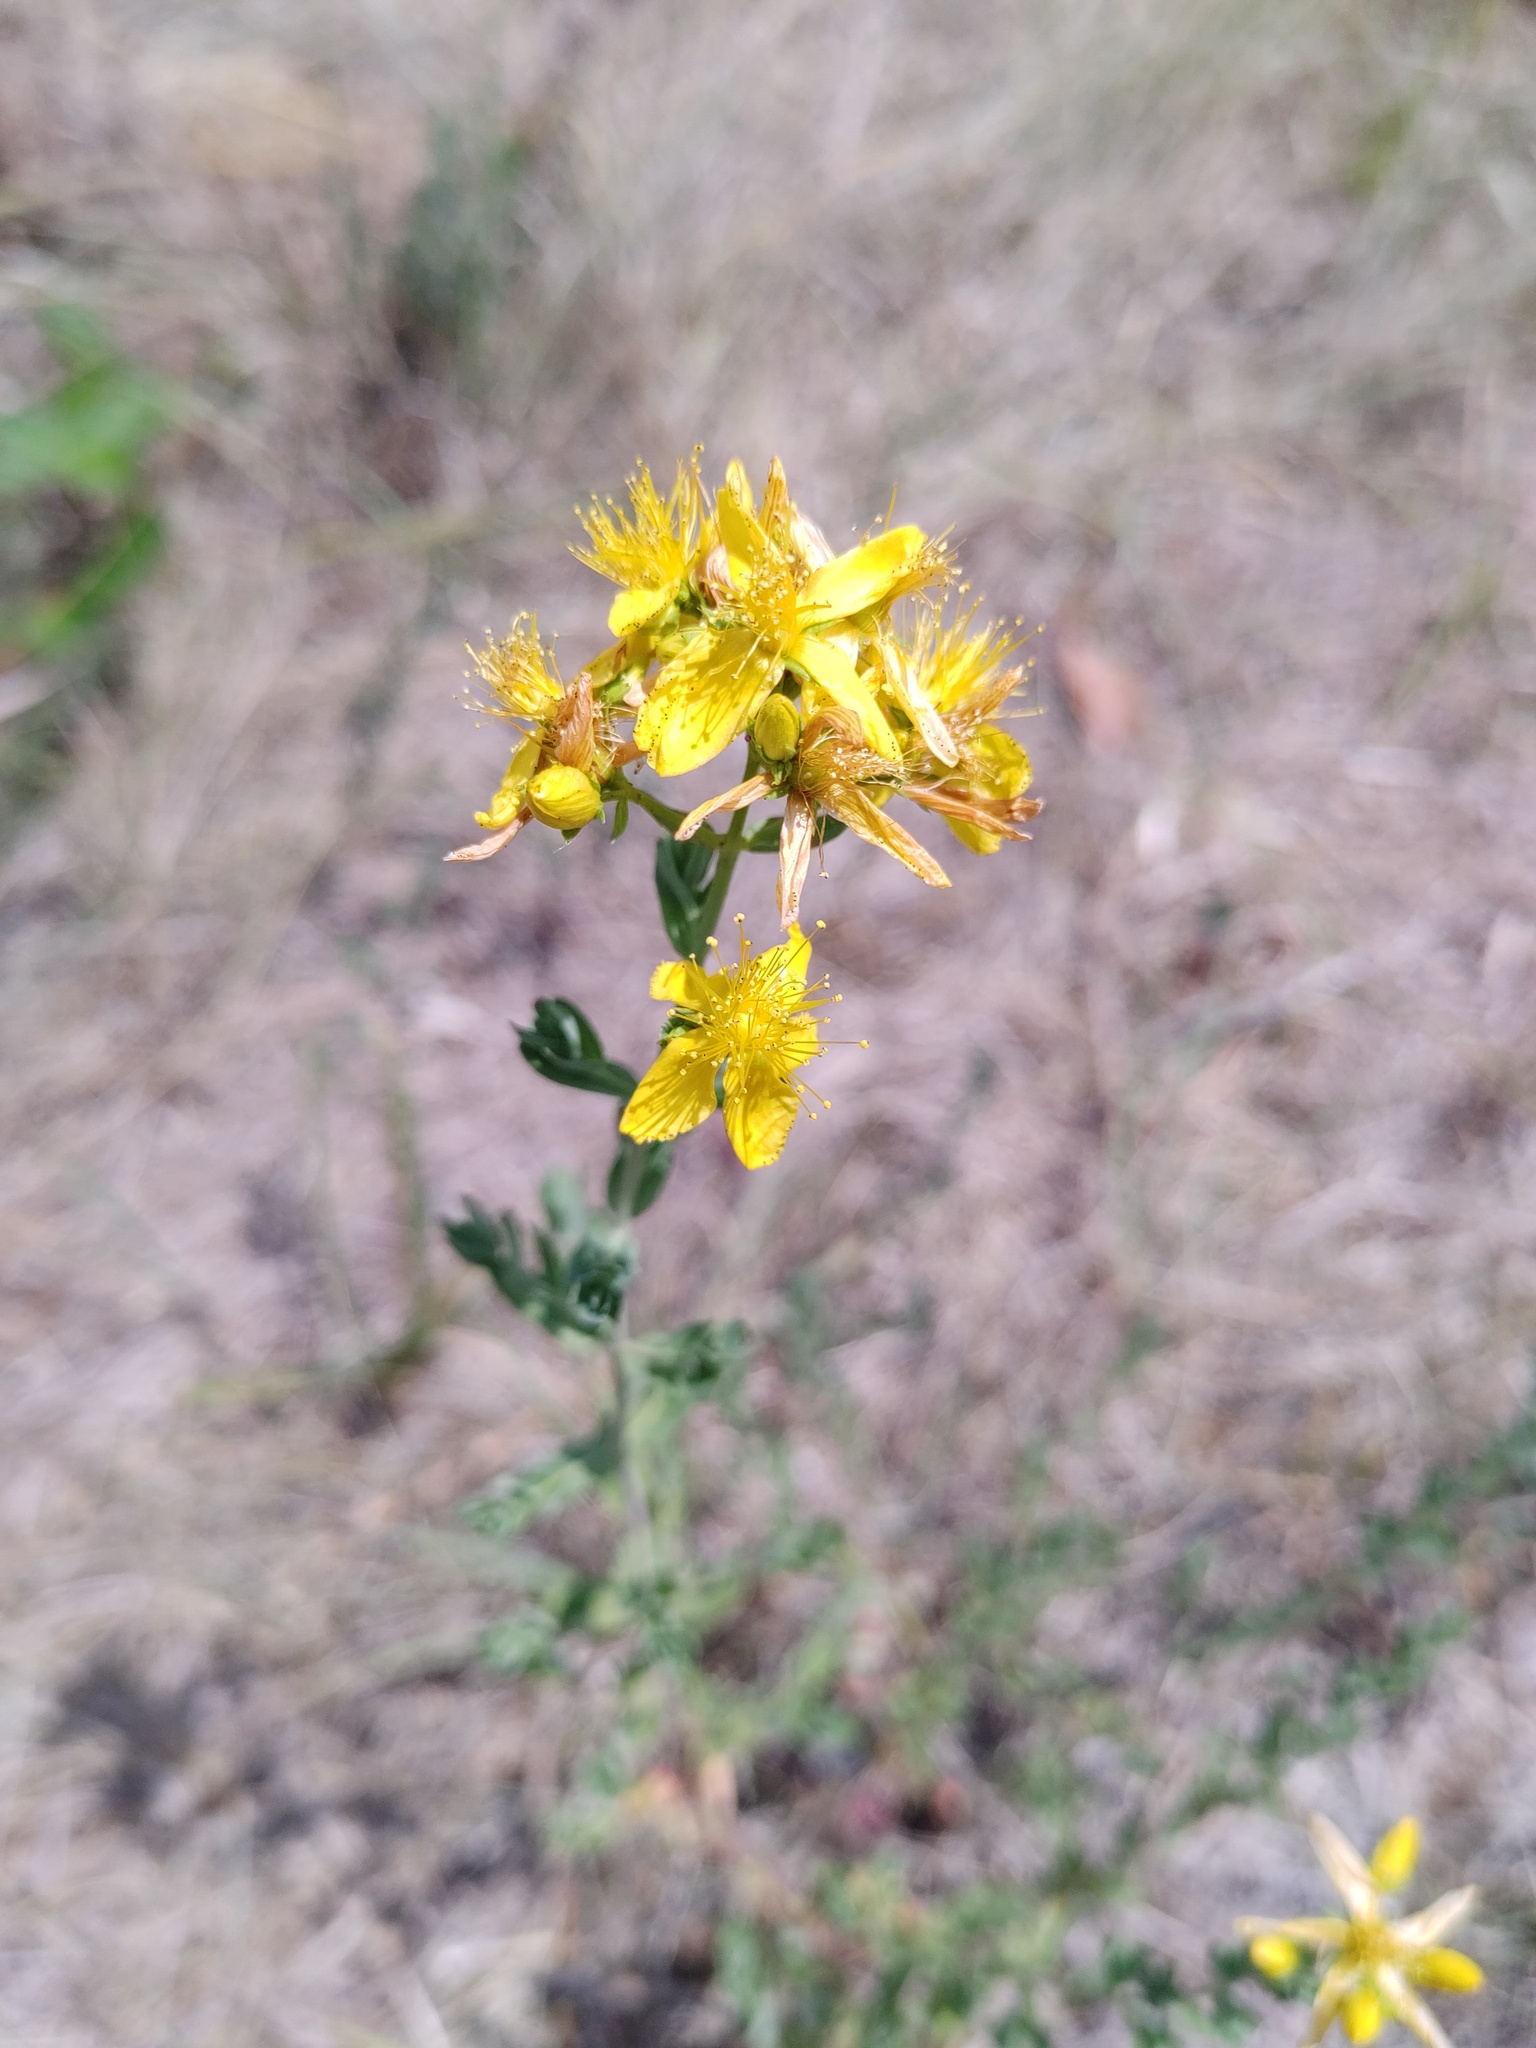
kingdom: Plantae
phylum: Tracheophyta
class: Magnoliopsida
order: Malpighiales
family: Hypericaceae
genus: Hypericum
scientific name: Hypericum perforatum
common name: Common st. johnswort
